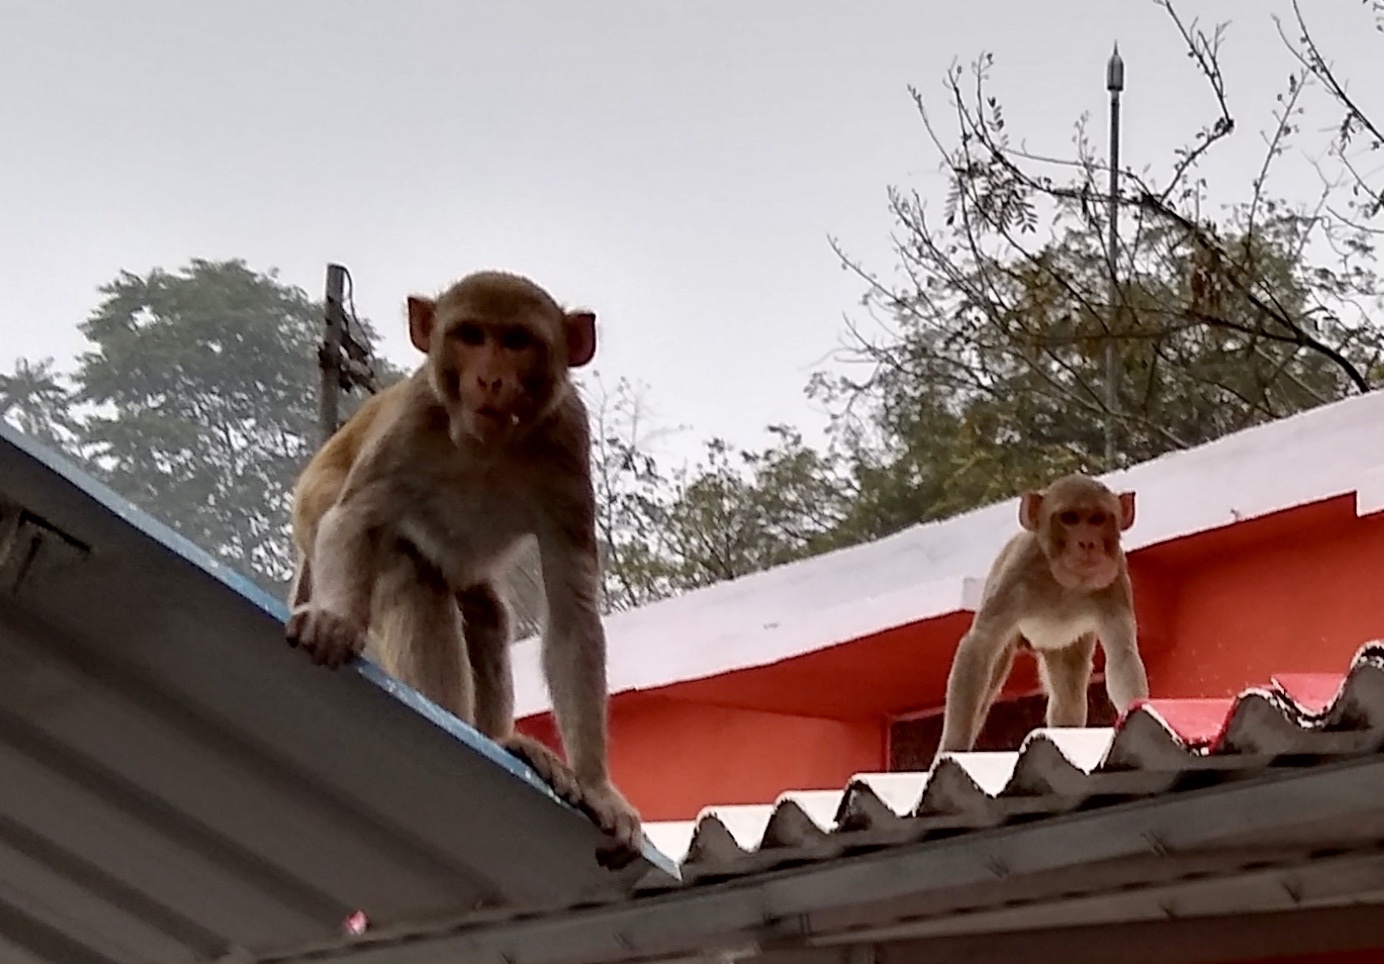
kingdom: Animalia
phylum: Chordata
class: Mammalia
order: Primates
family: Cercopithecidae
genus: Macaca
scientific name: Macaca mulatta
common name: Rhesus monkey
